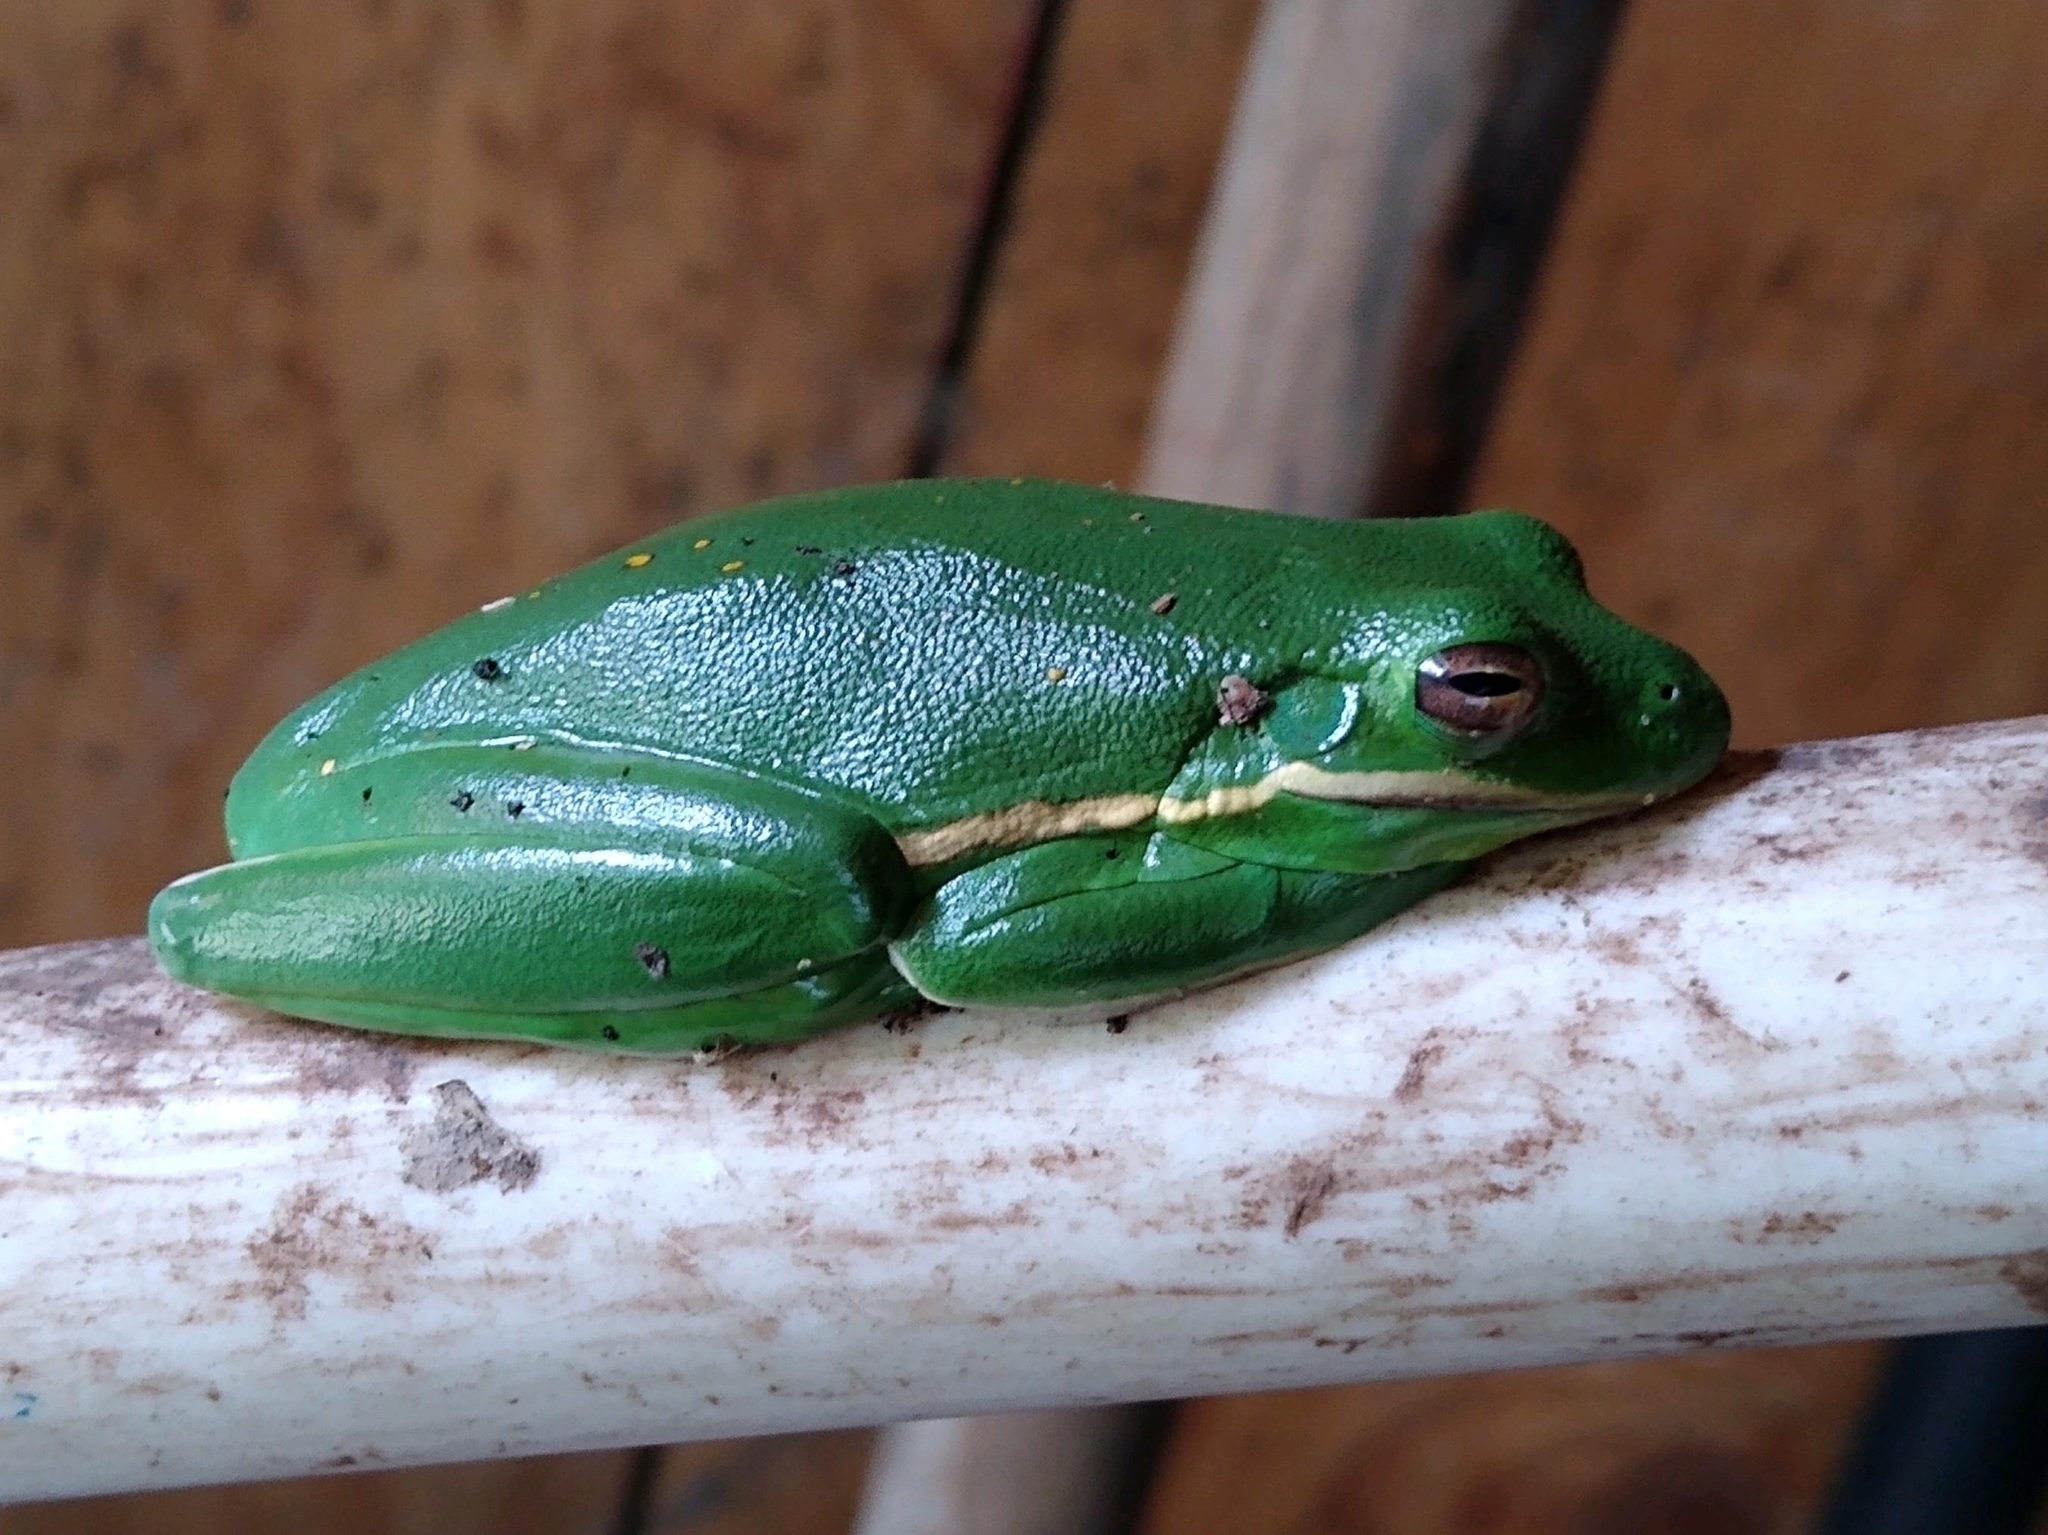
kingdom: Animalia
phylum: Chordata
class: Amphibia
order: Anura
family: Hylidae
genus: Dryophytes
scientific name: Dryophytes cinereus
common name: Green treefrog
